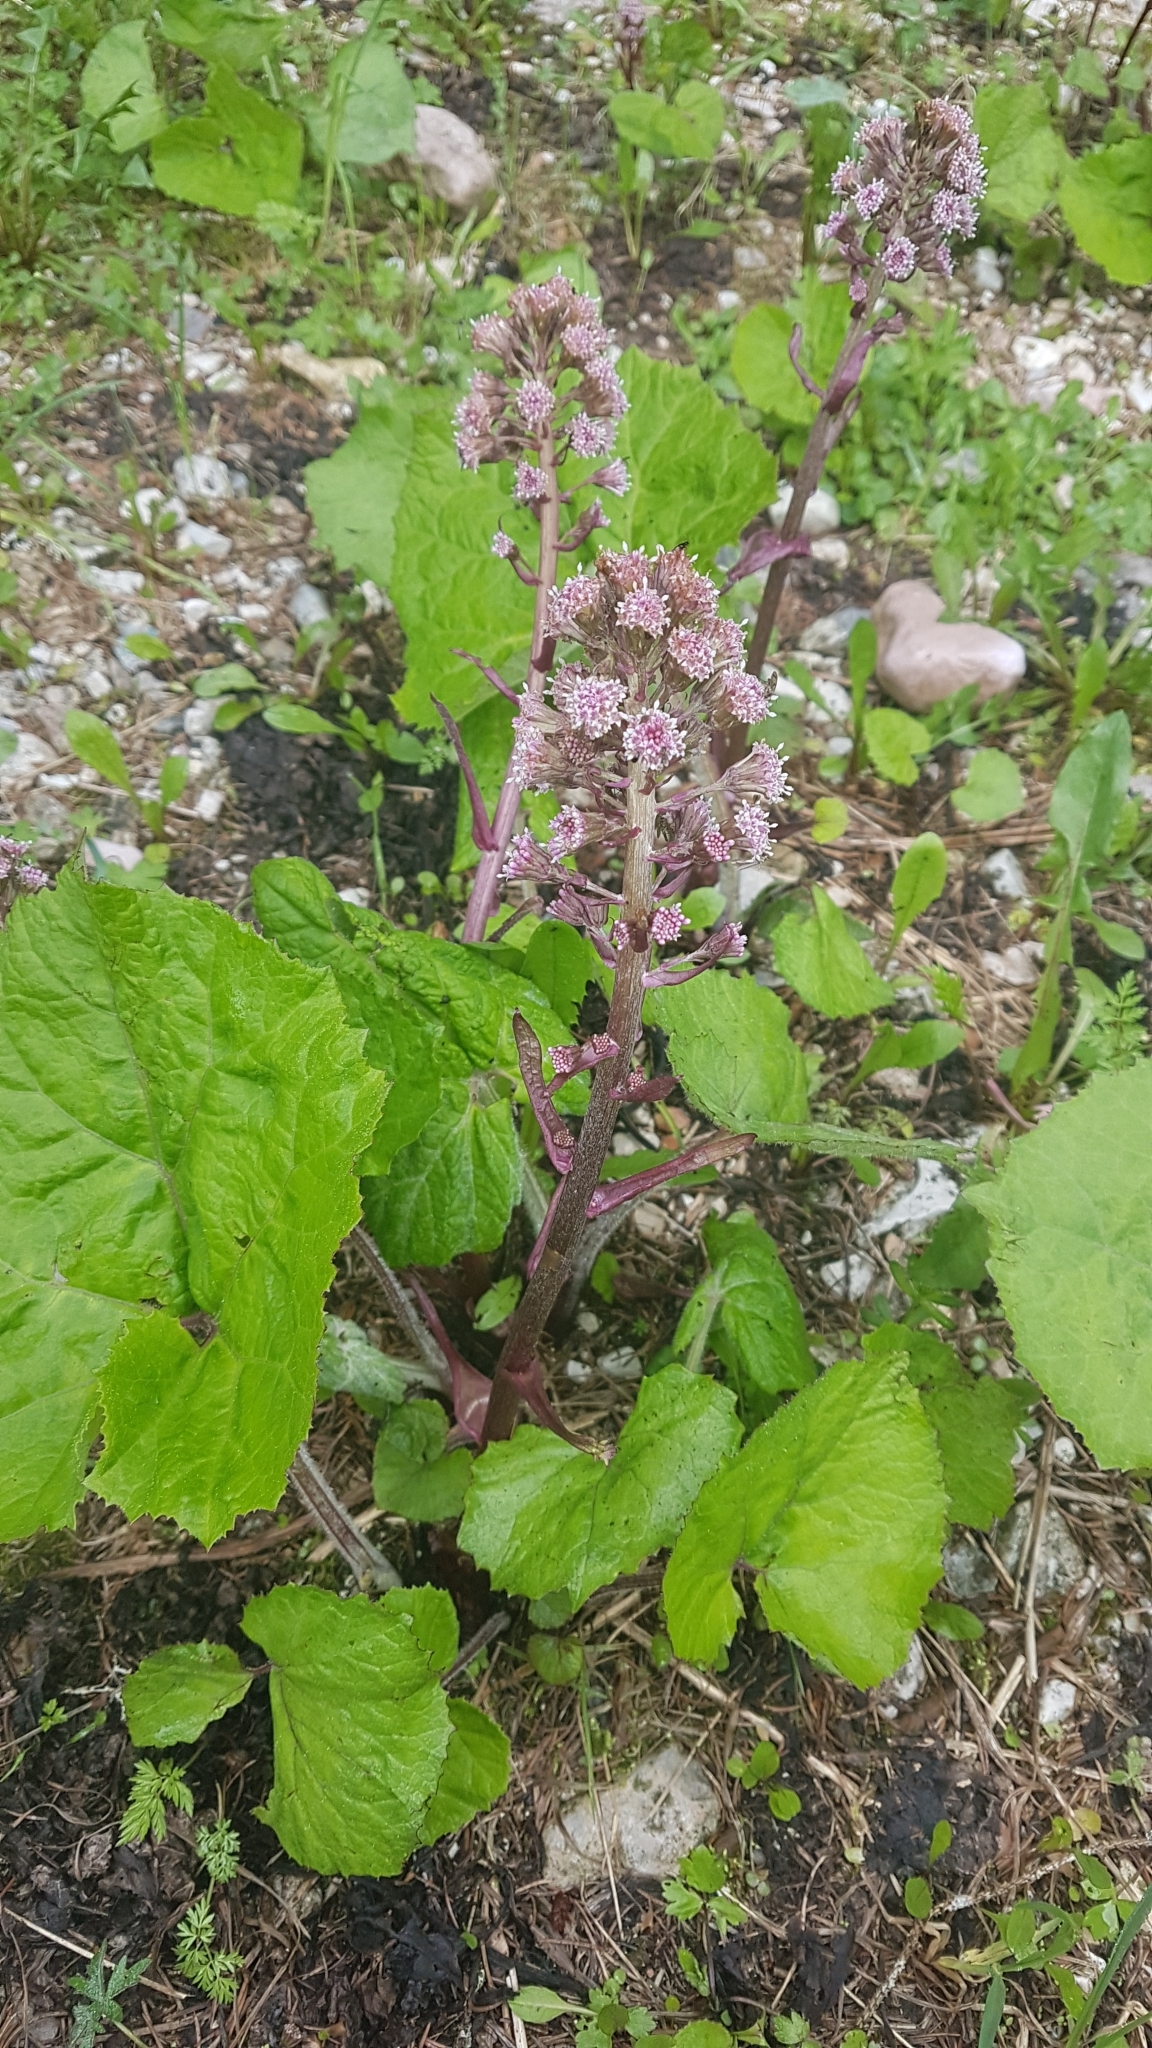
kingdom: Plantae
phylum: Tracheophyta
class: Magnoliopsida
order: Asterales
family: Asteraceae
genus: Petasites
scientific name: Petasites hybridus
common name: Butterbur
